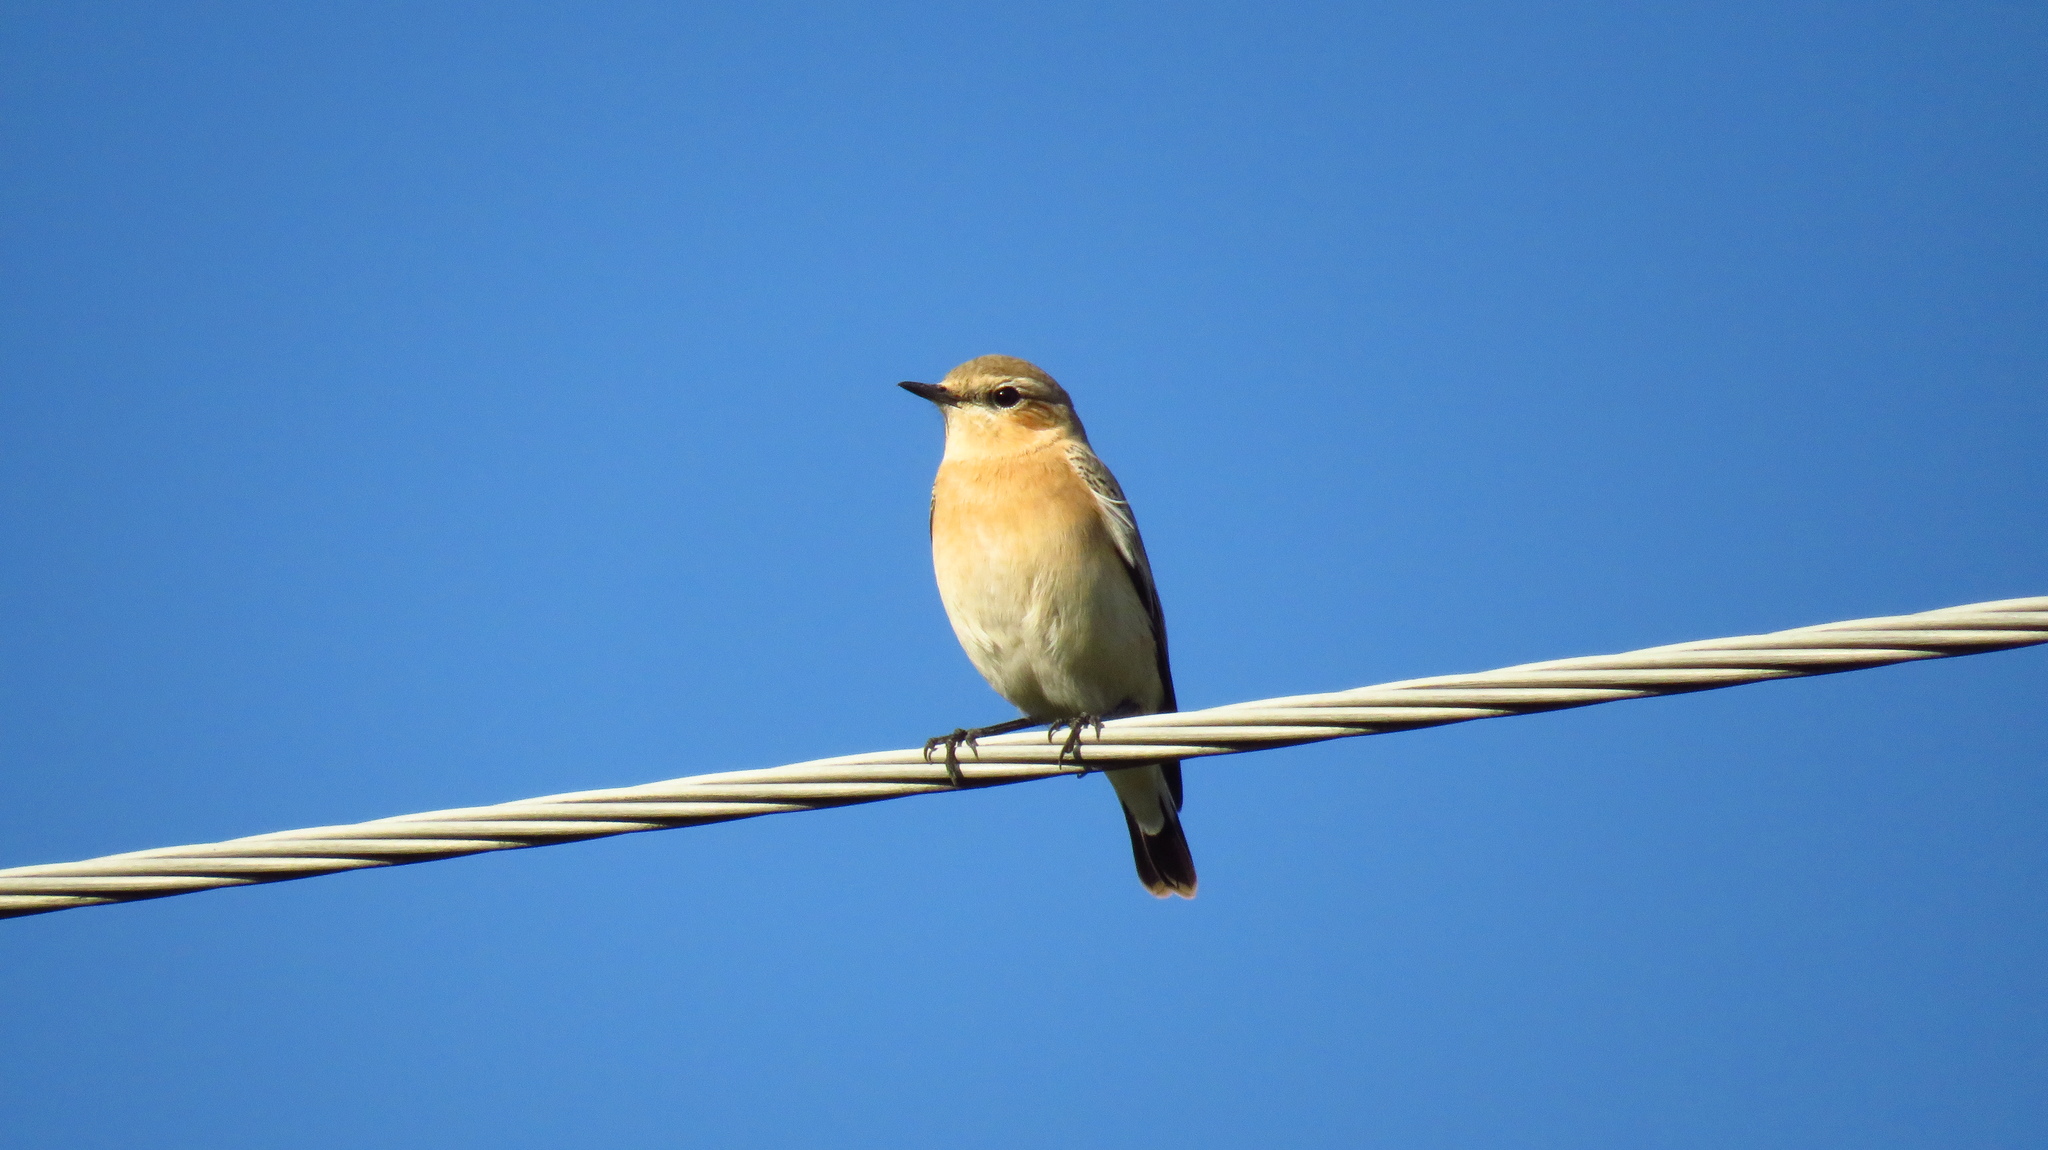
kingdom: Animalia
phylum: Chordata
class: Aves
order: Passeriformes
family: Muscicapidae
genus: Oenanthe
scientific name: Oenanthe oenanthe
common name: Northern wheatear
